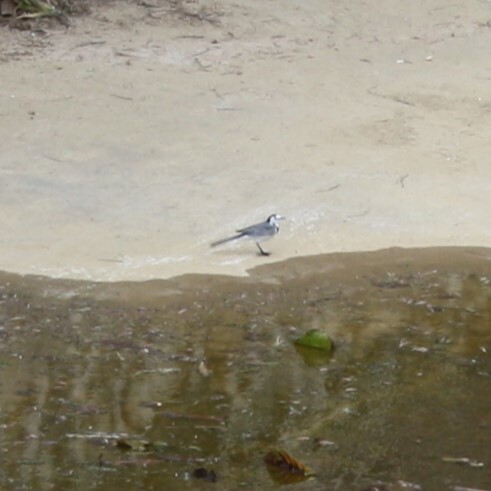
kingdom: Animalia
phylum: Chordata
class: Aves
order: Passeriformes
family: Motacillidae
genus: Motacilla
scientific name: Motacilla alba
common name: White wagtail
